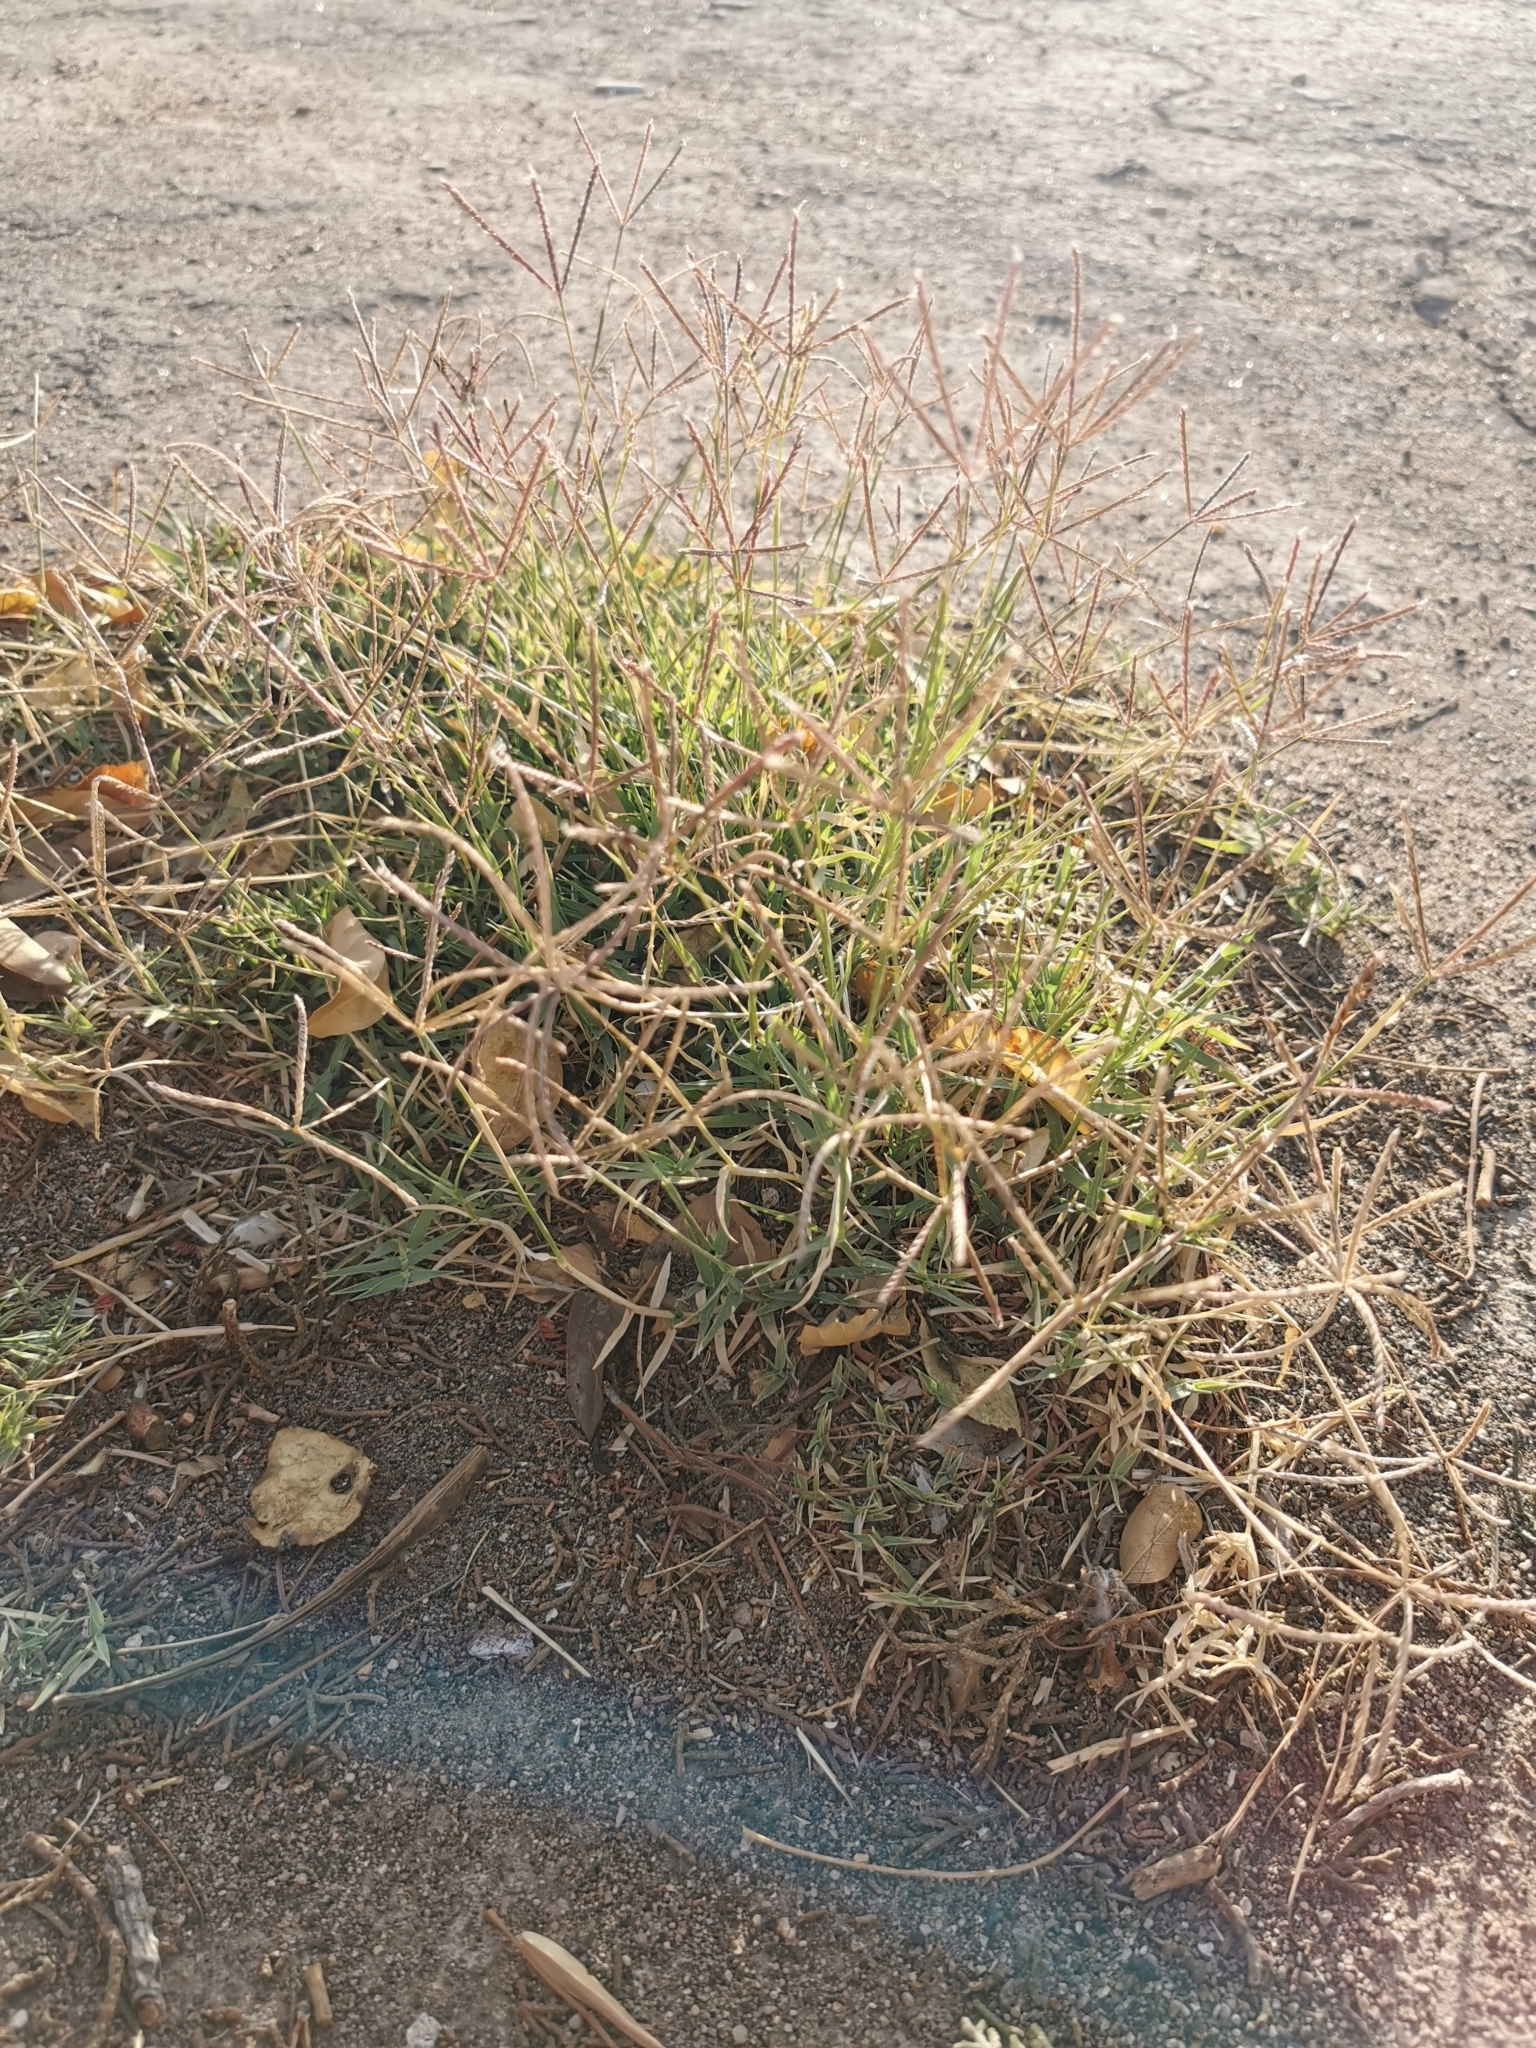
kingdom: Plantae
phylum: Tracheophyta
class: Liliopsida
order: Poales
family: Poaceae
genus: Cynodon
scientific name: Cynodon dactylon
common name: Bermuda grass
